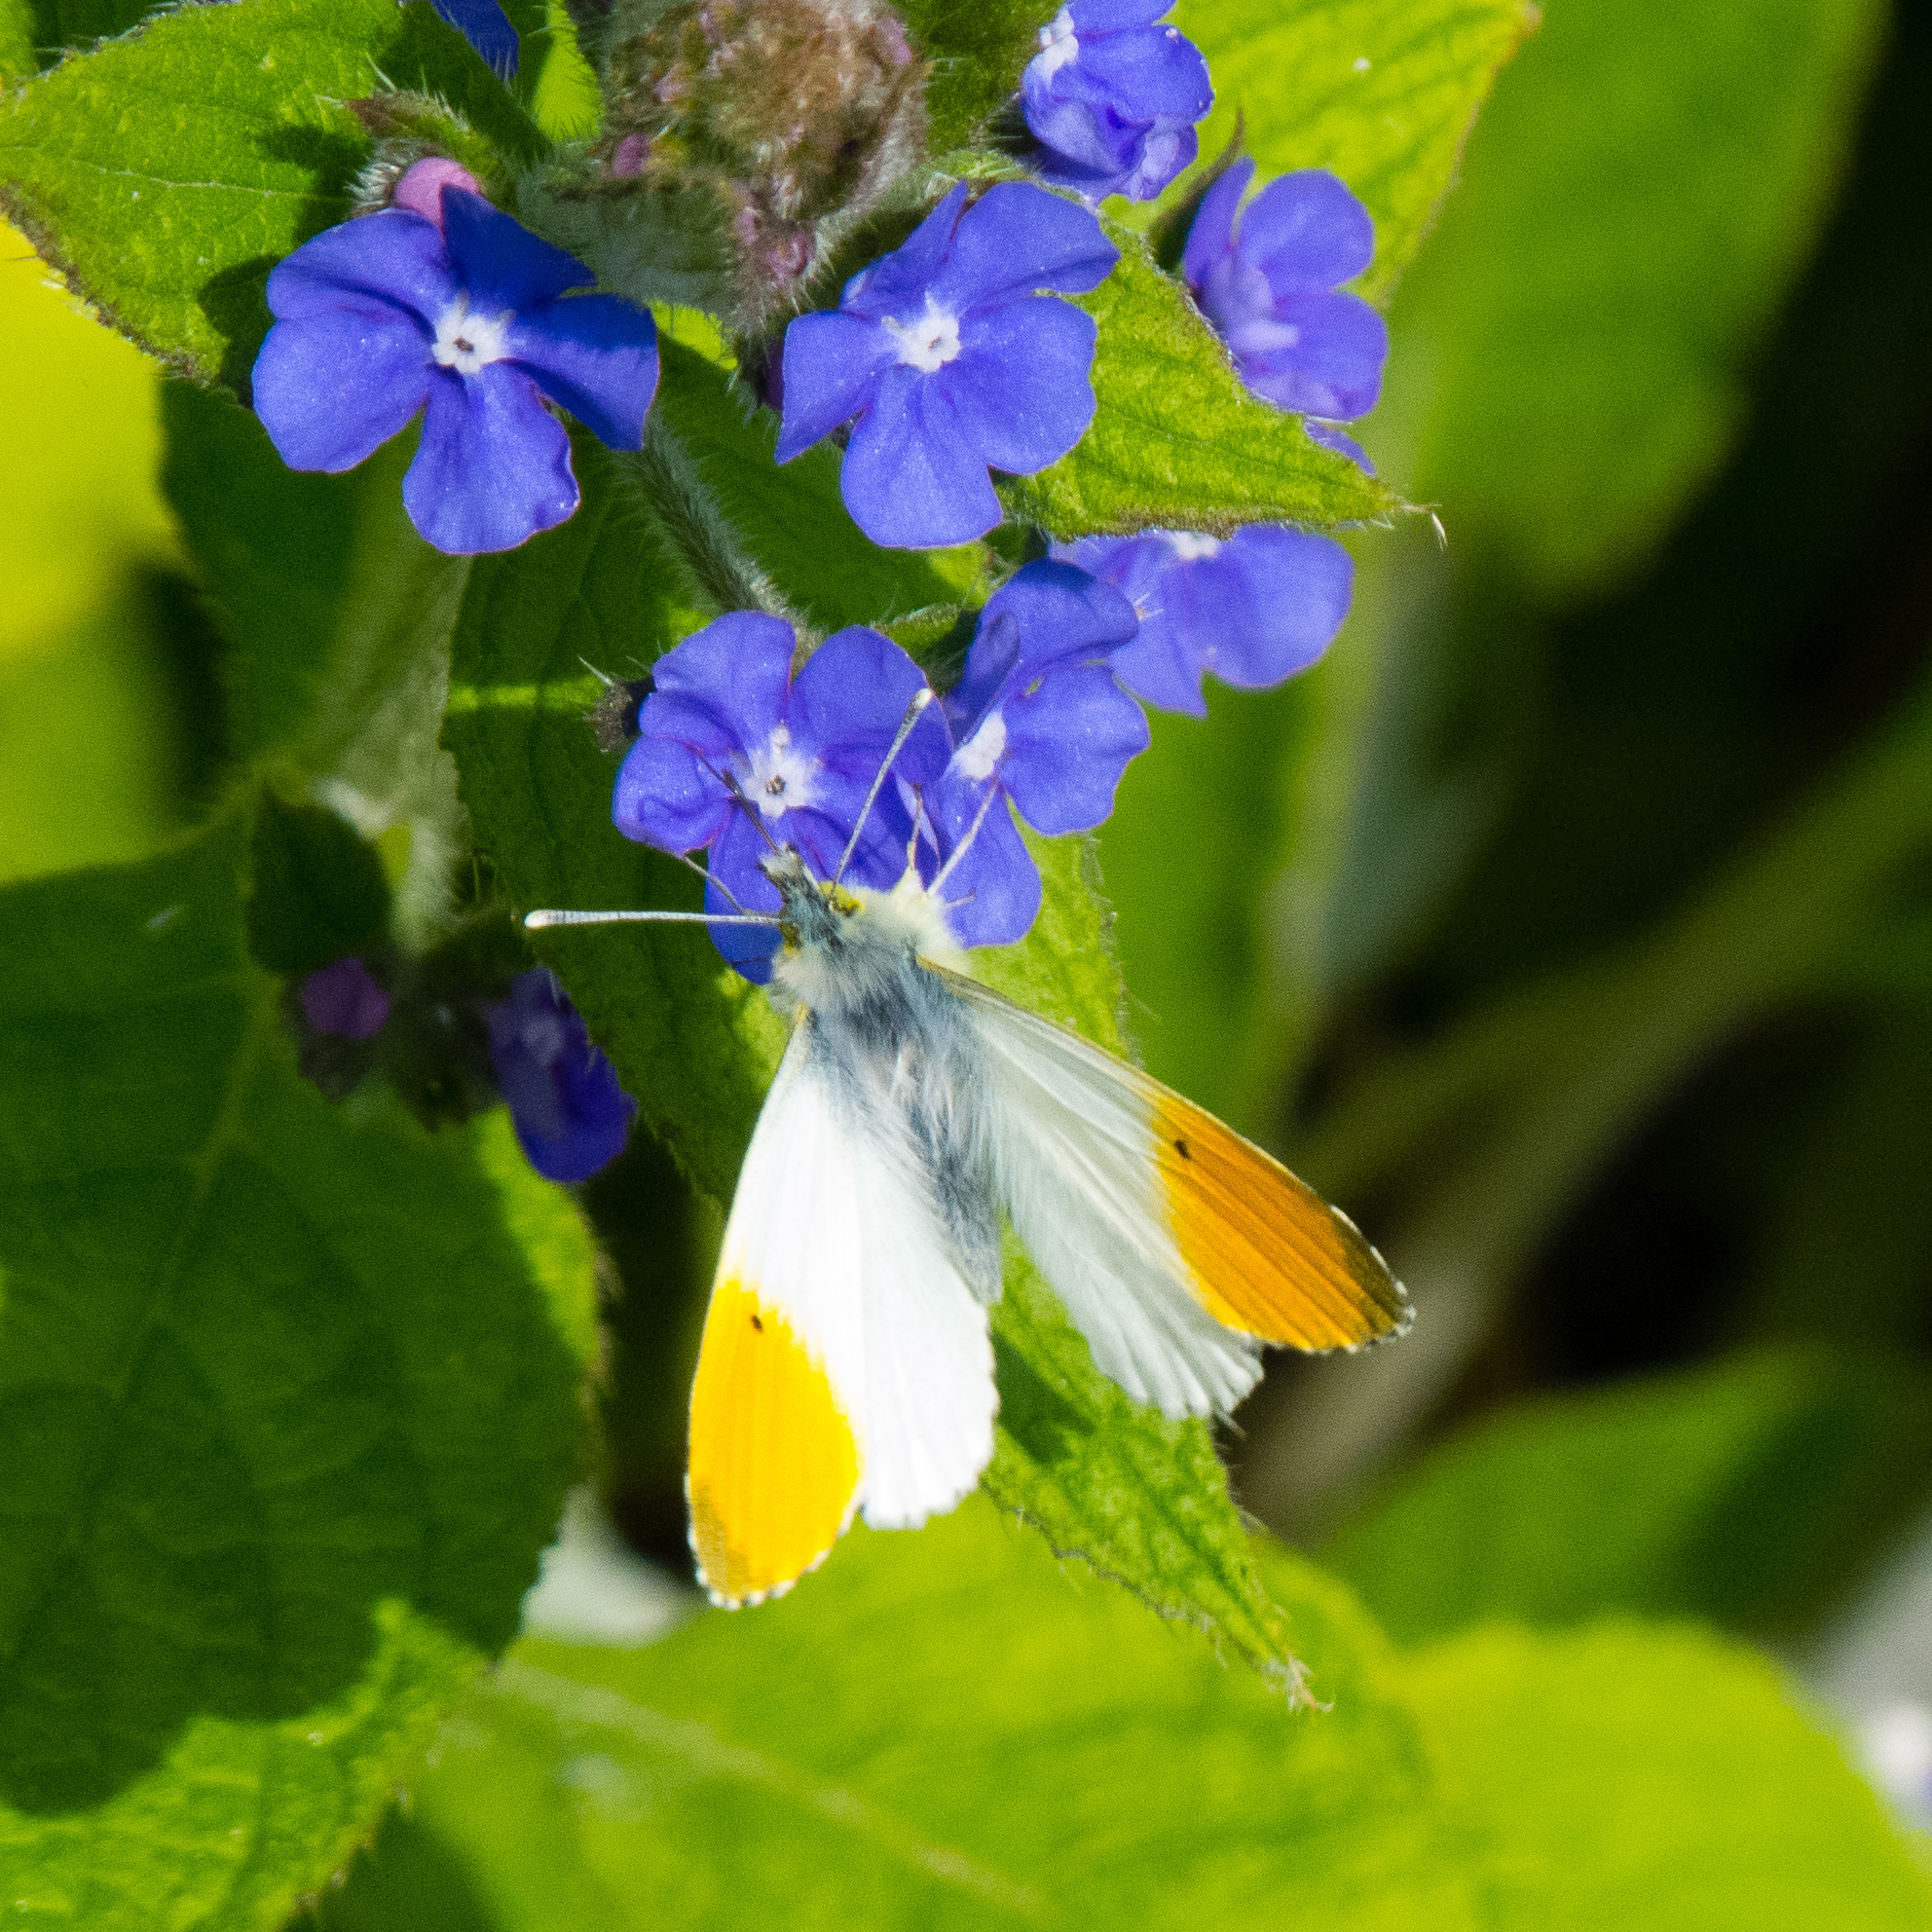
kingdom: Animalia
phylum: Arthropoda
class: Insecta
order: Lepidoptera
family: Pieridae
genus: Anthocharis
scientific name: Anthocharis cardamines
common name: Orange-tip
